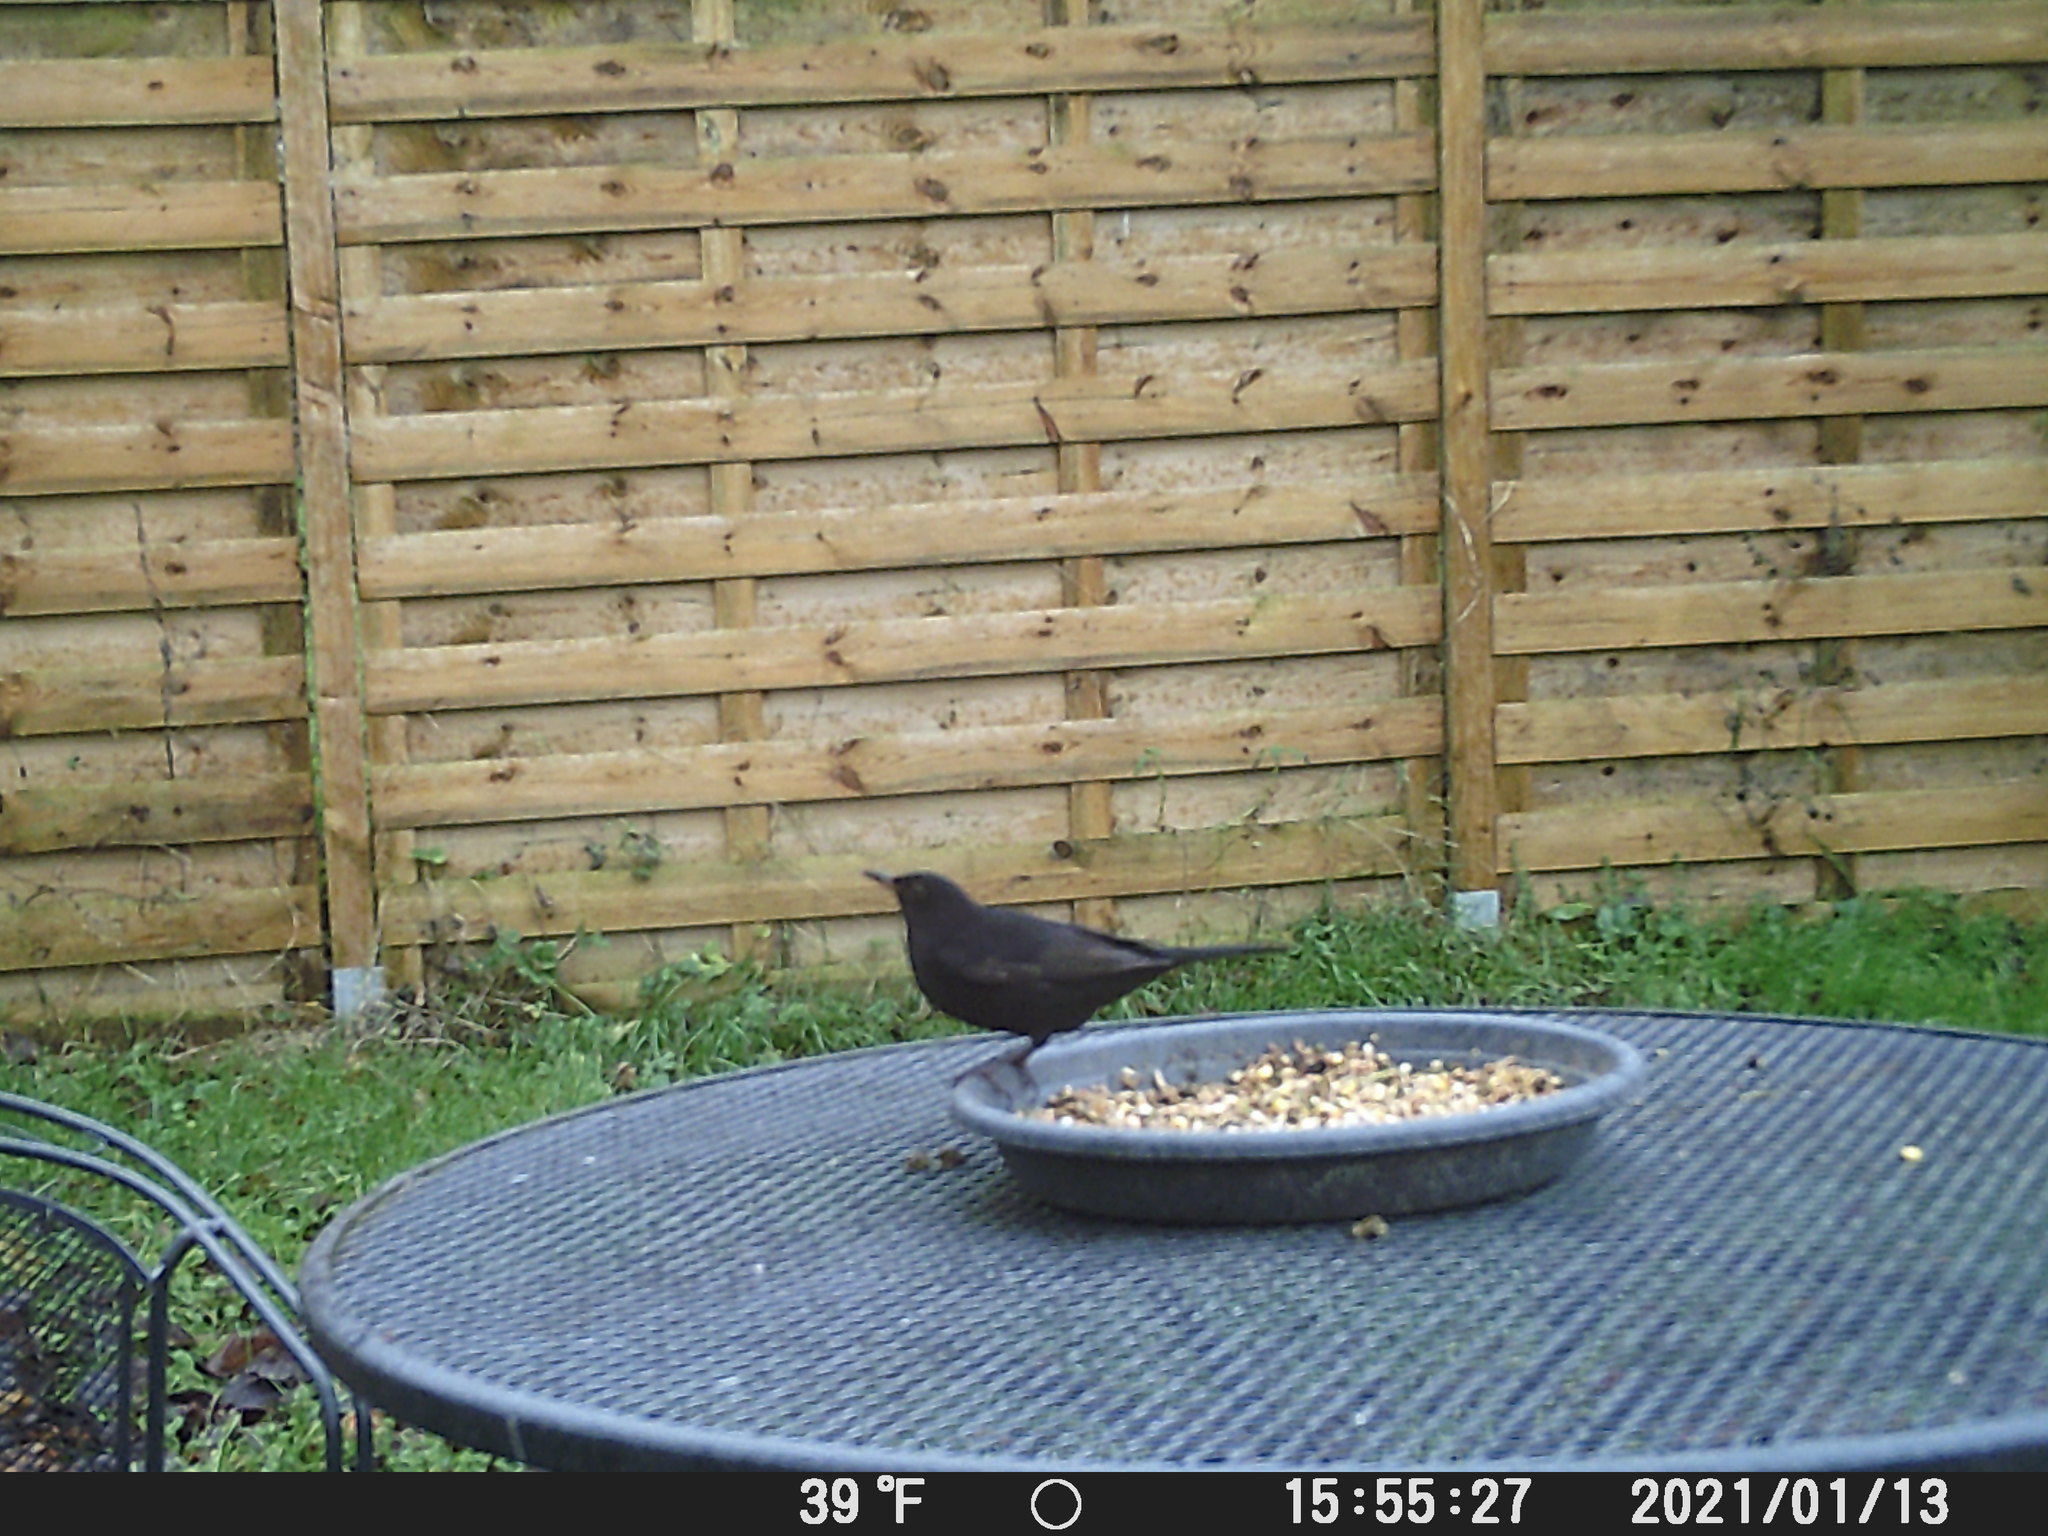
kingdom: Animalia
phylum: Chordata
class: Aves
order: Passeriformes
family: Turdidae
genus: Turdus
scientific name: Turdus merula
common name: Common blackbird
